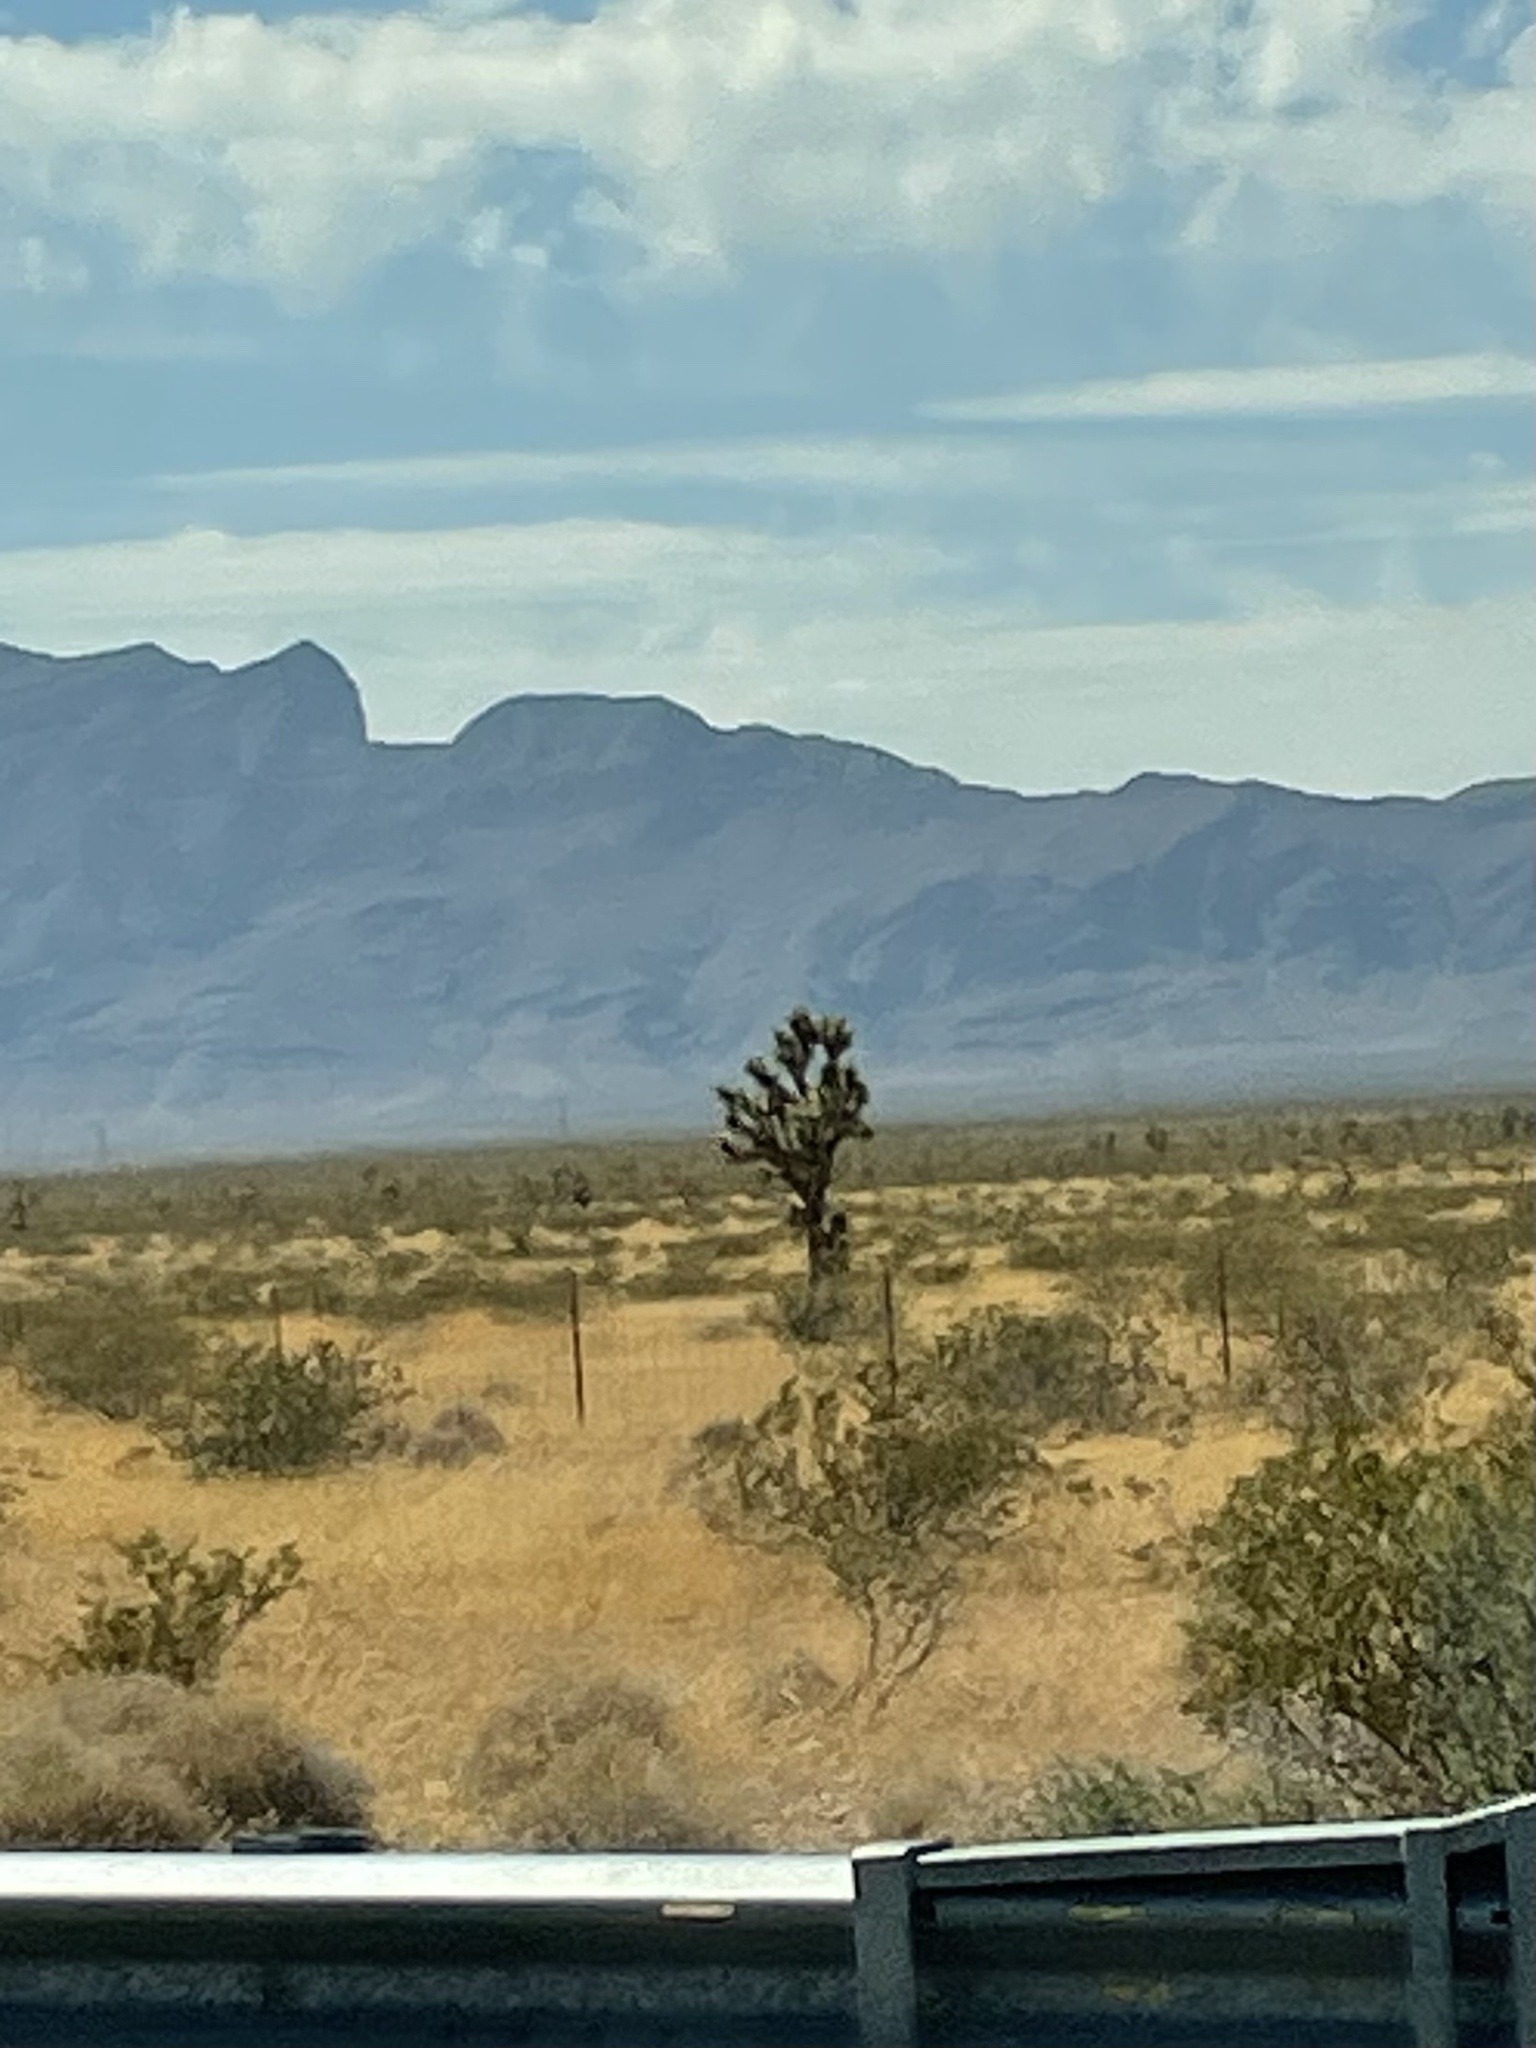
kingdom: Plantae
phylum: Tracheophyta
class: Liliopsida
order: Asparagales
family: Asparagaceae
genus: Yucca
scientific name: Yucca brevifolia
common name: Joshua tree
